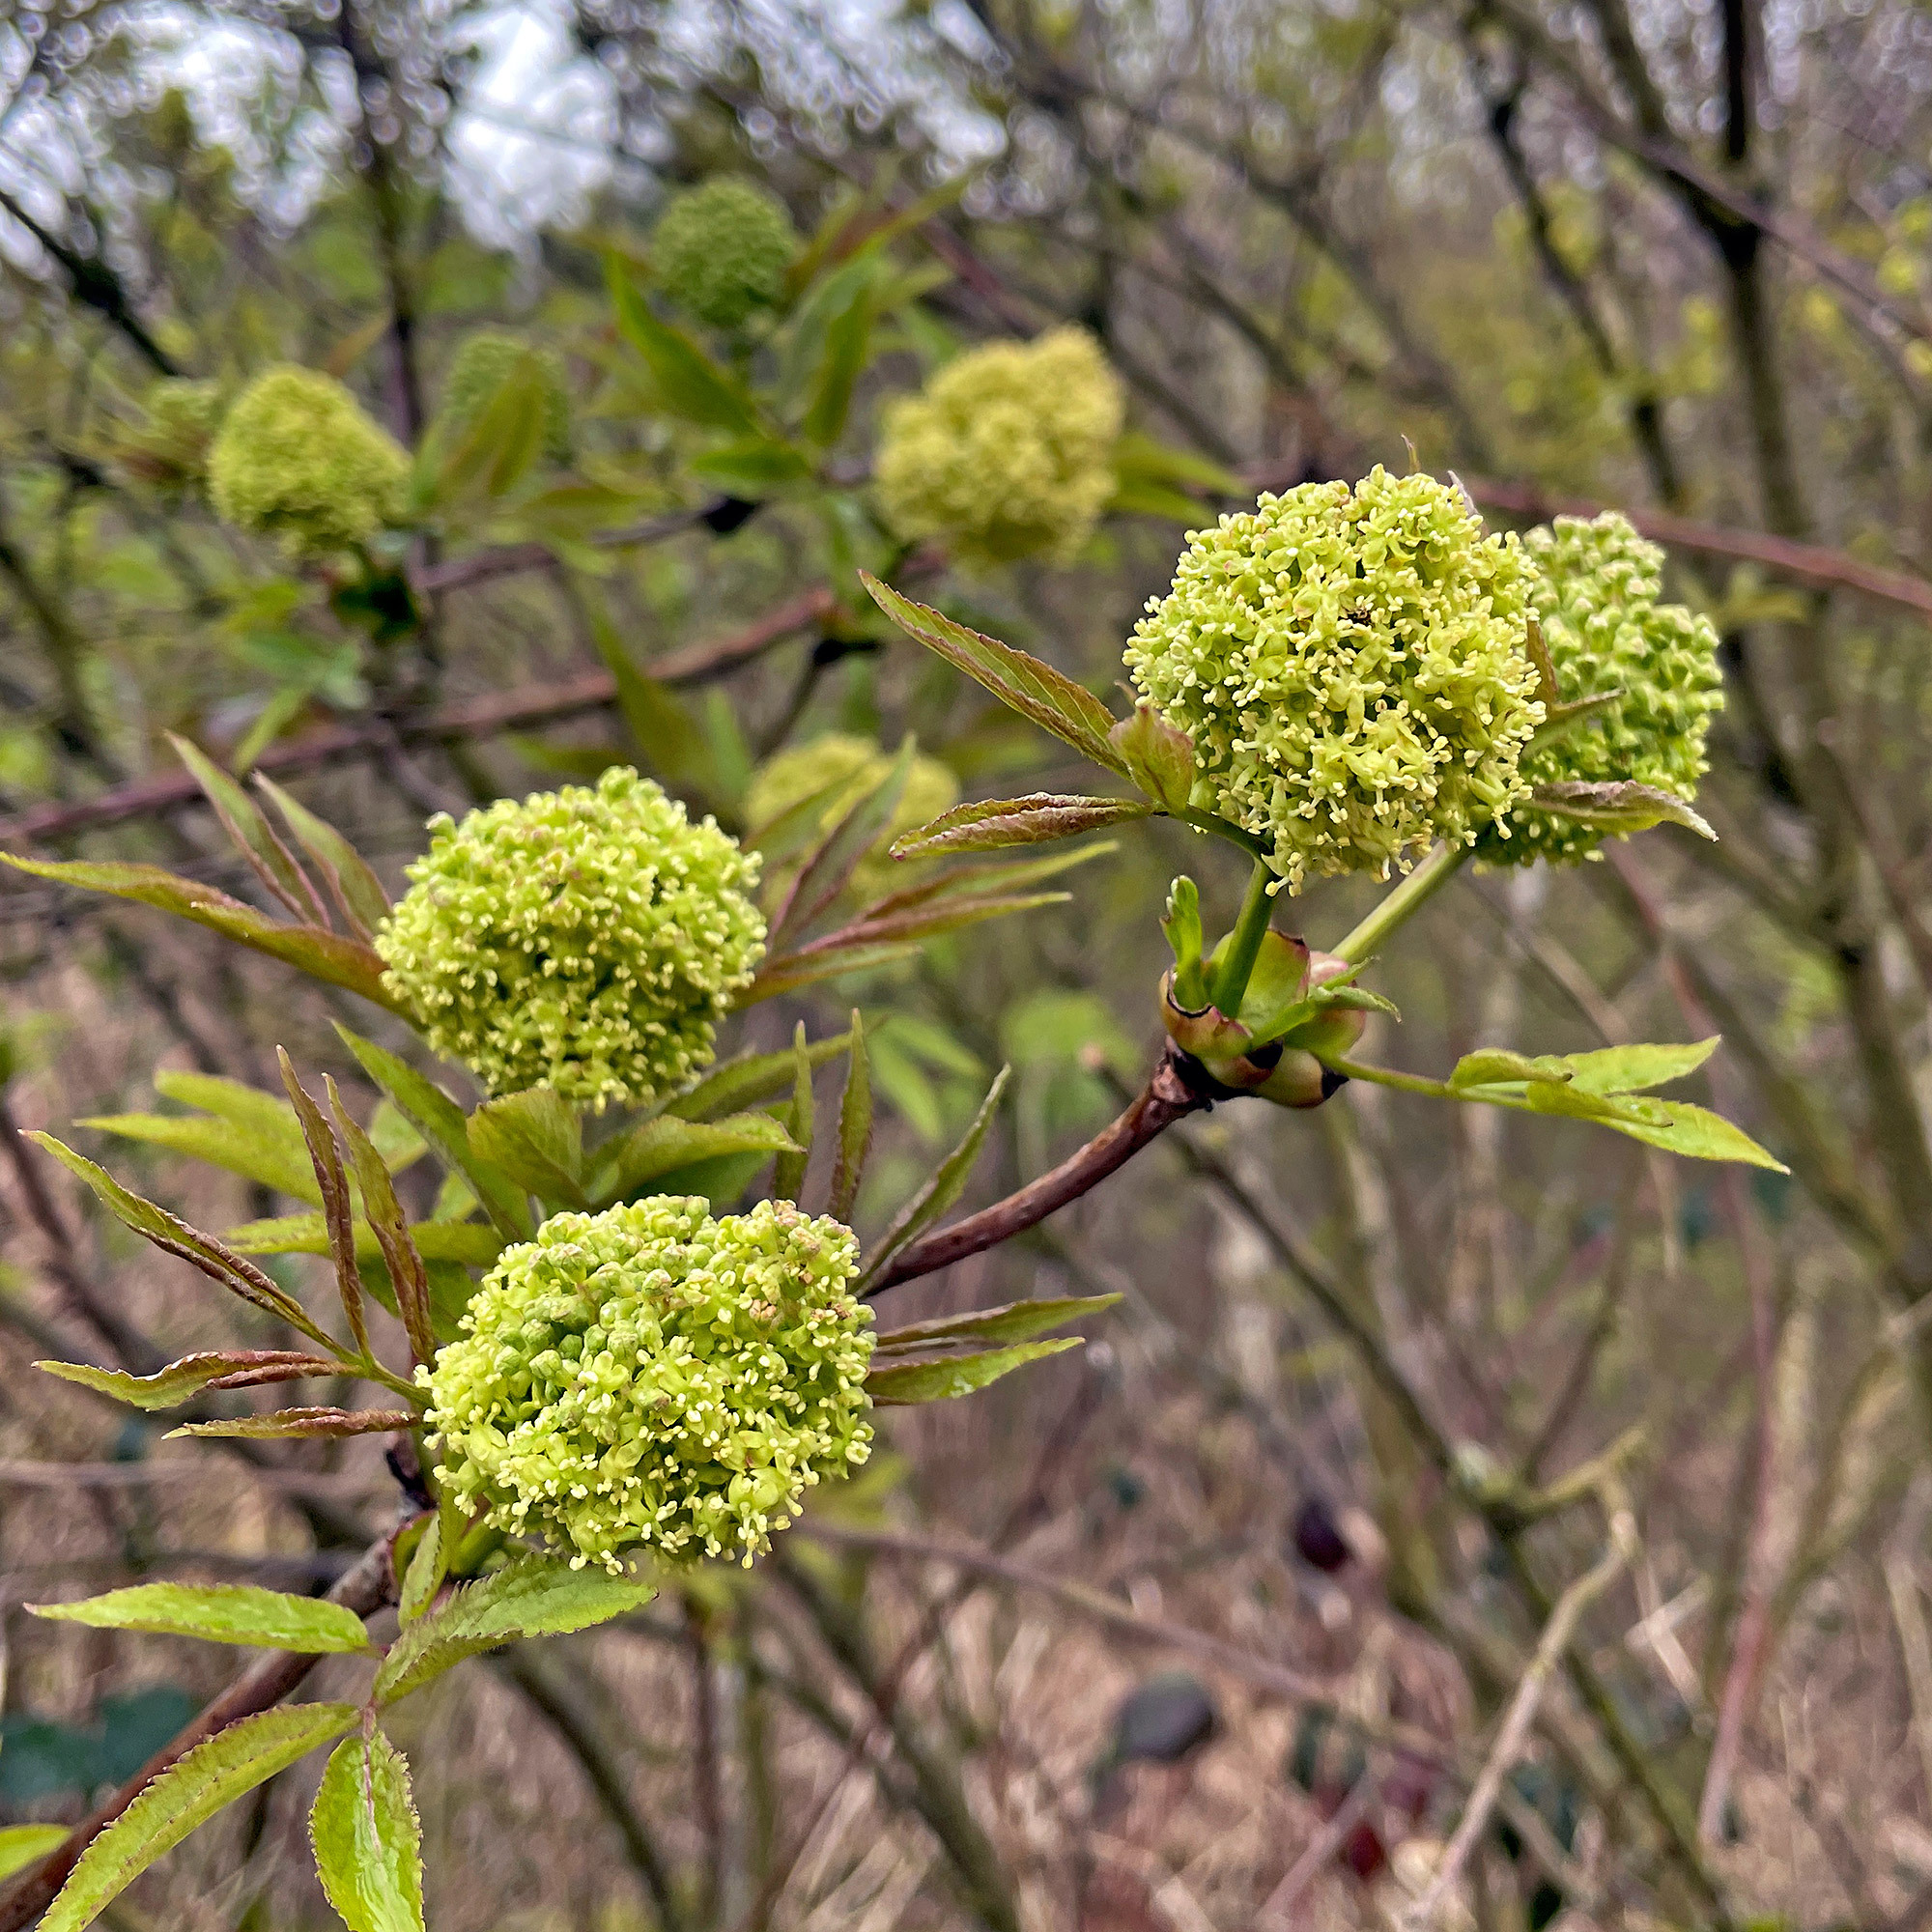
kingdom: Plantae
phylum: Tracheophyta
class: Magnoliopsida
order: Dipsacales
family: Viburnaceae
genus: Sambucus
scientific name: Sambucus racemosa
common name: Red-berried elder
